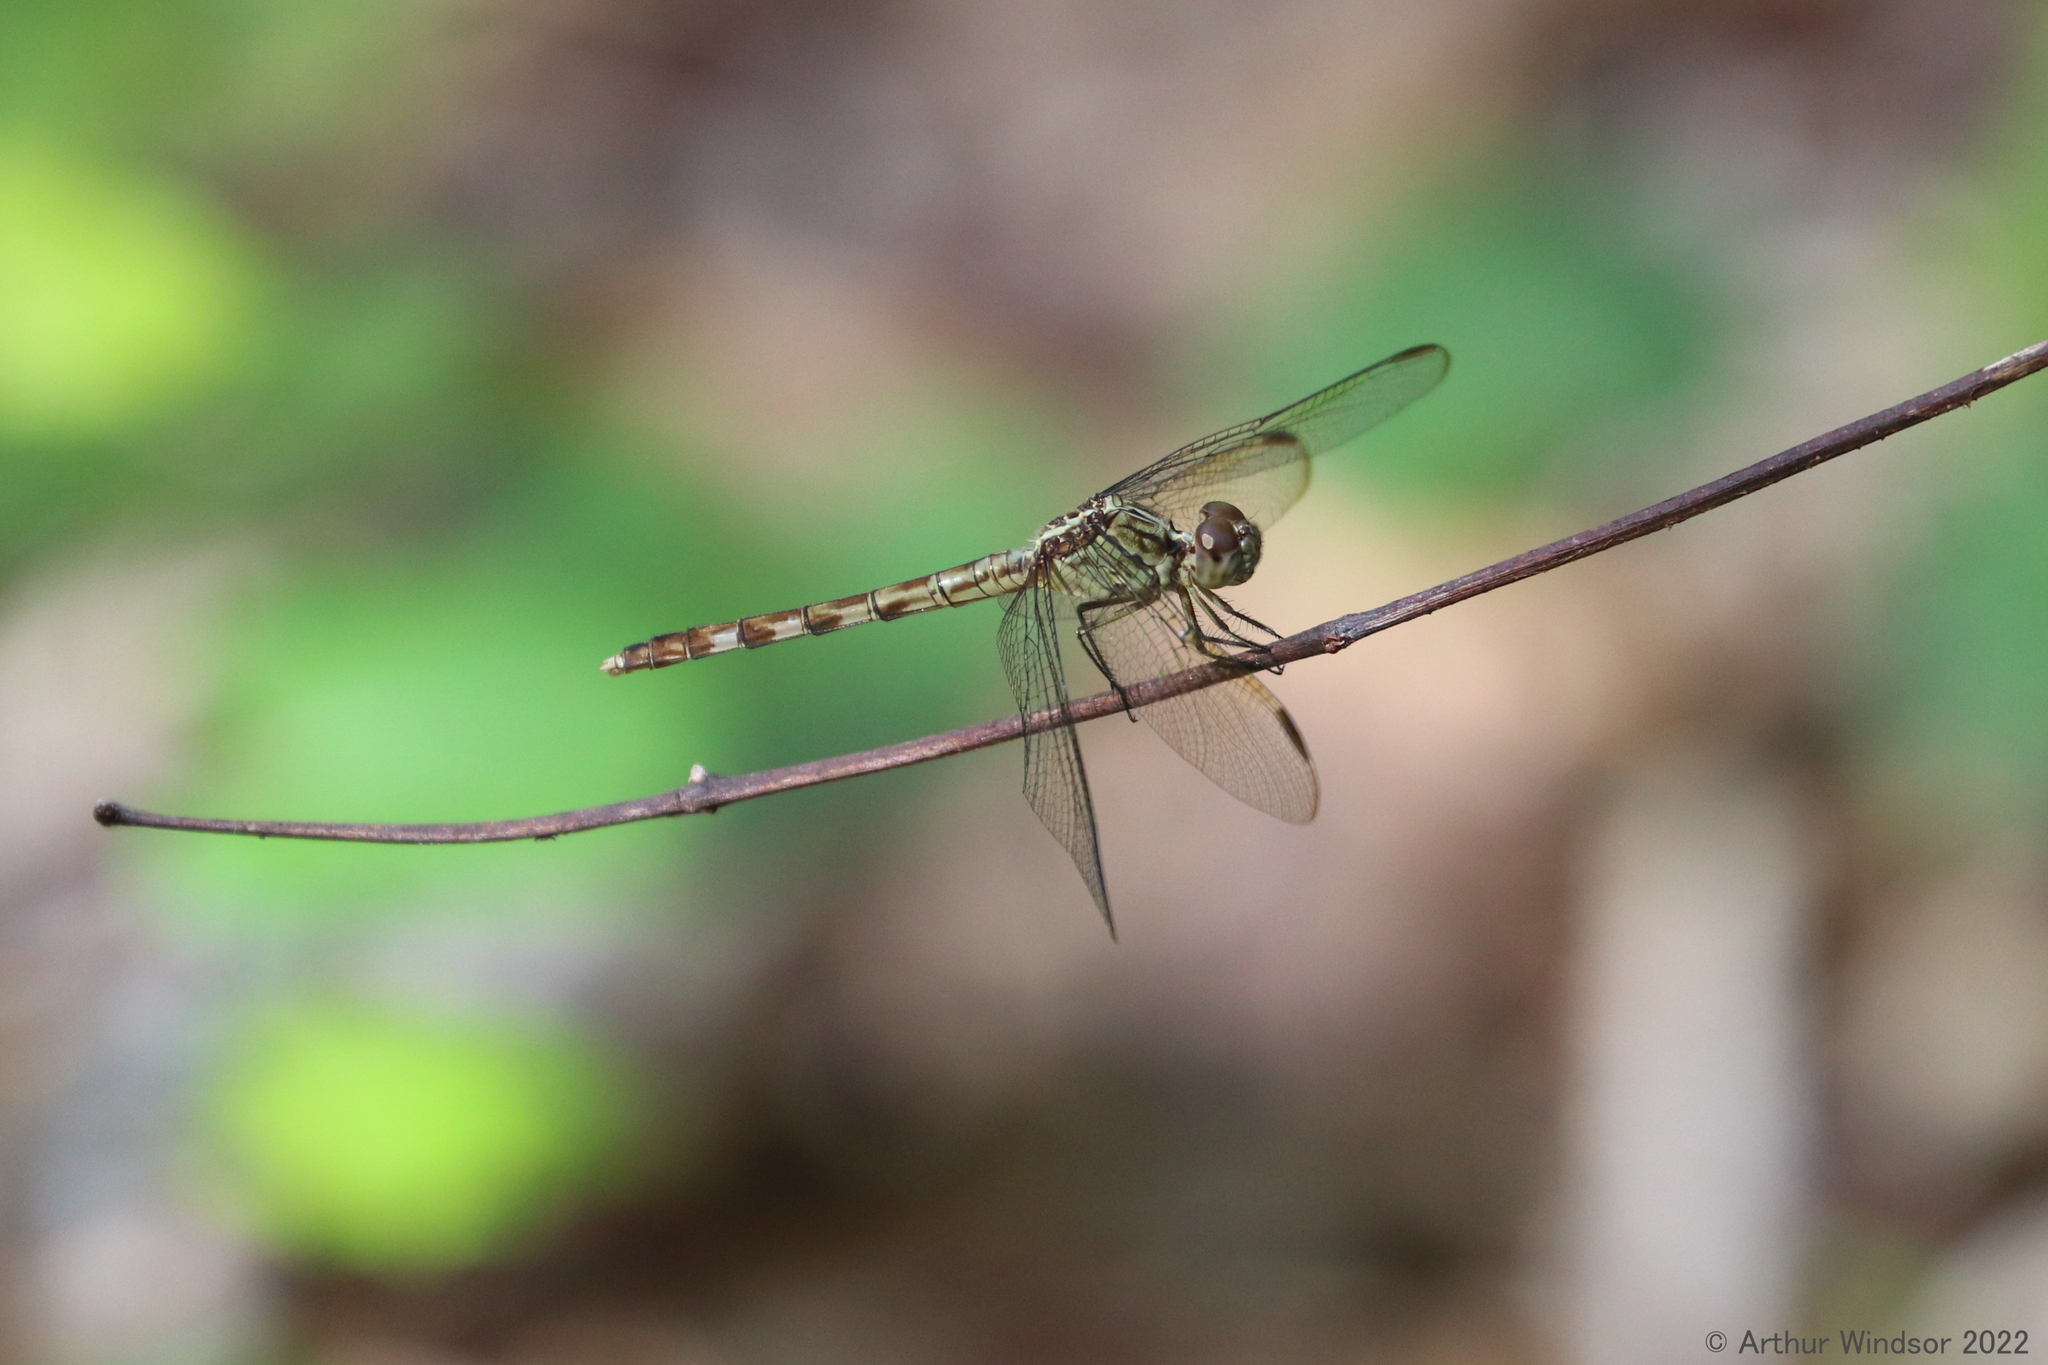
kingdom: Animalia
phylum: Arthropoda
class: Insecta
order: Odonata
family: Libellulidae
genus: Erythrodiplax
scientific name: Erythrodiplax umbrata
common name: Band-winged dragonlet
